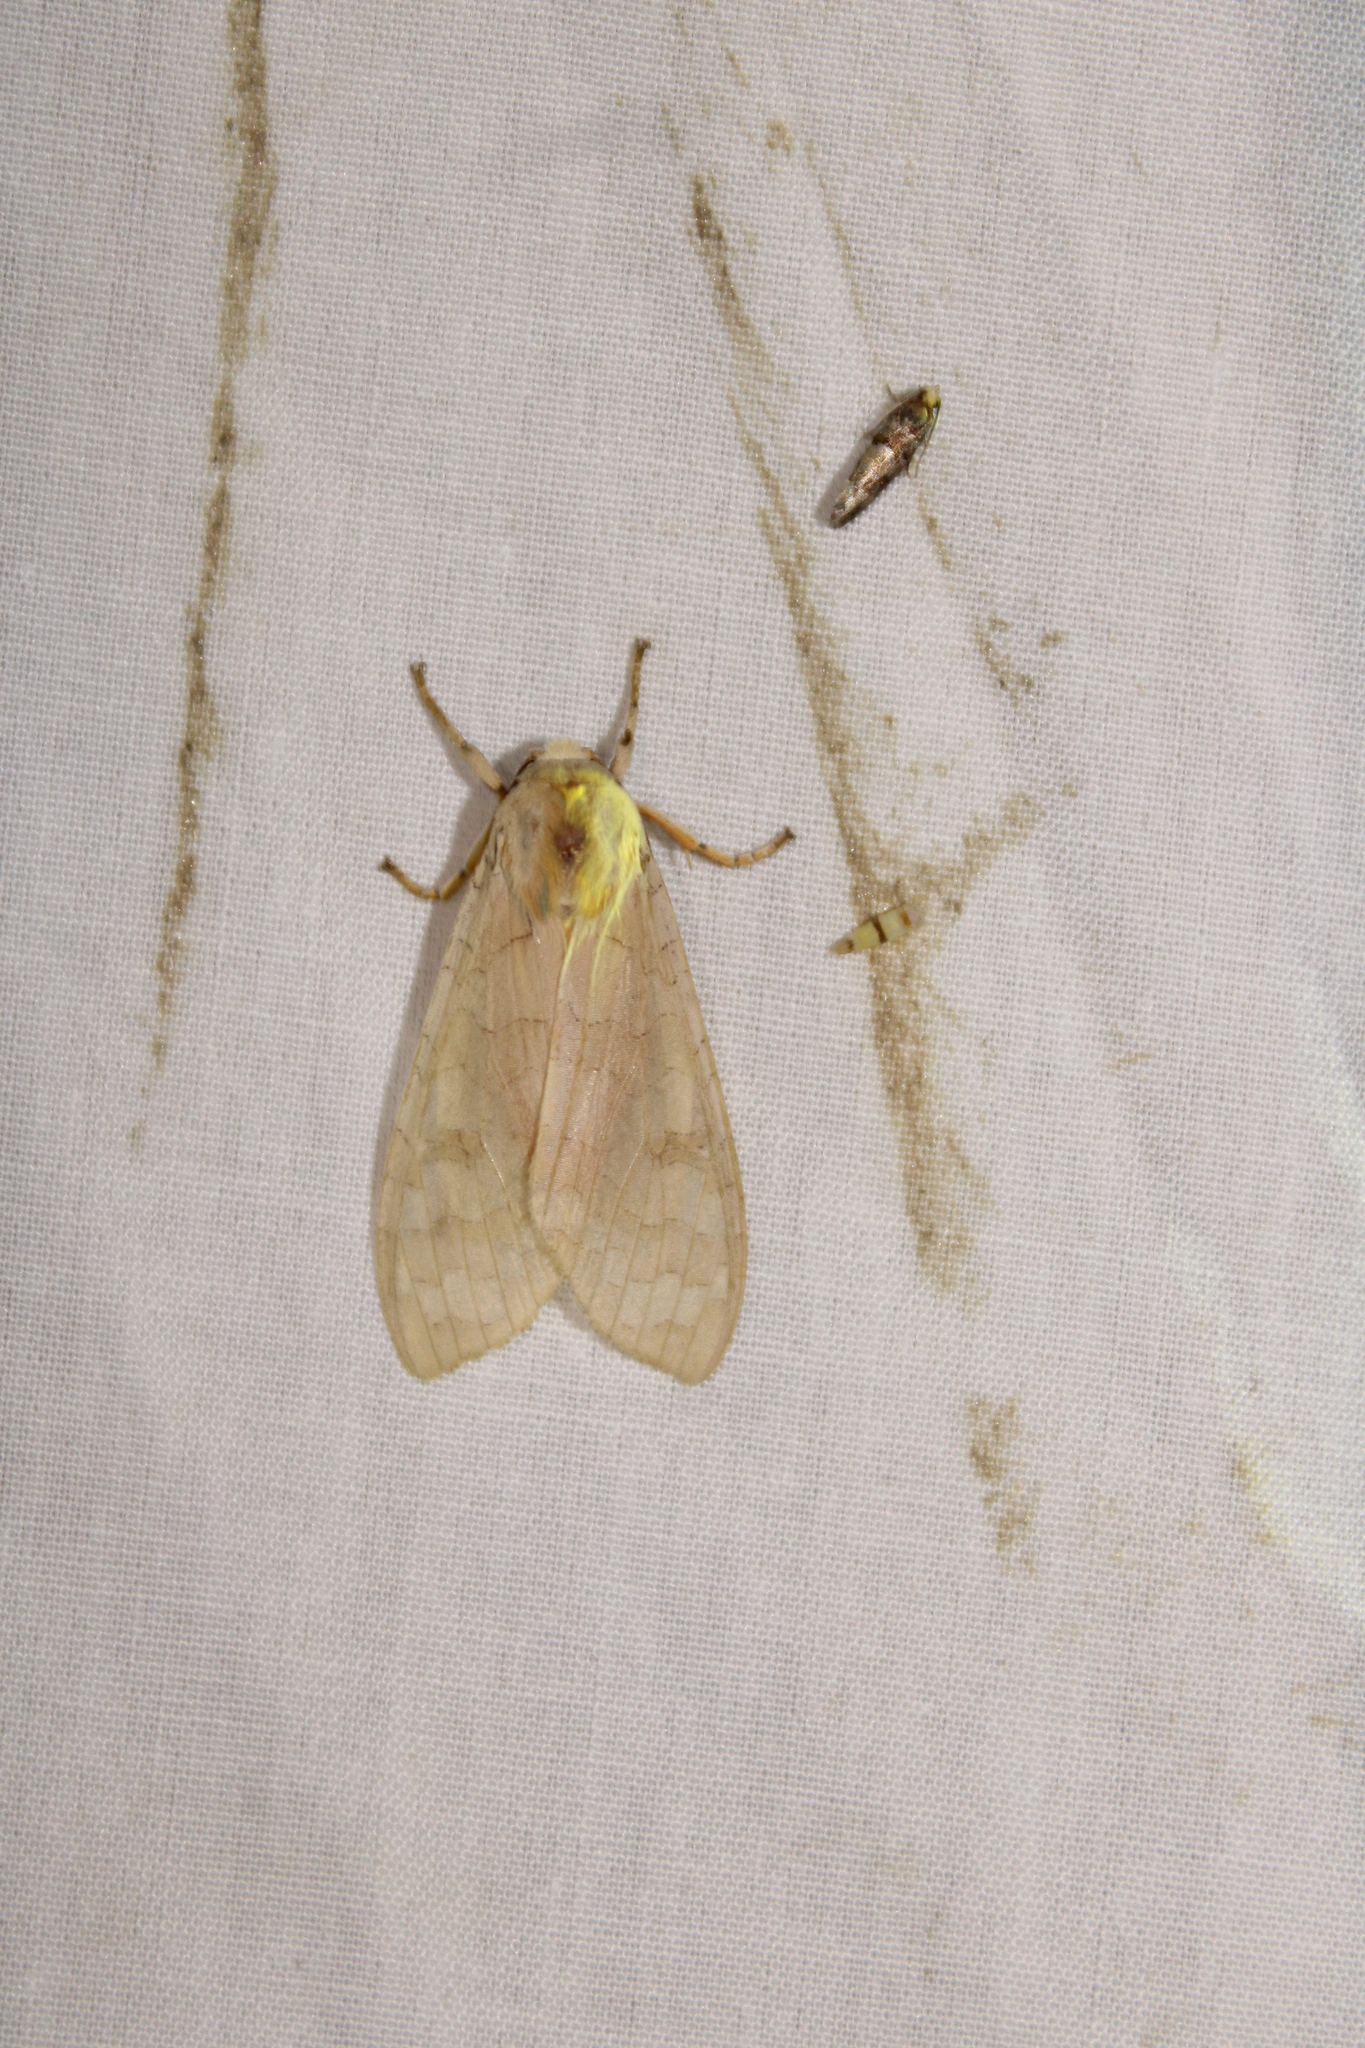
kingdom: Animalia
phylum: Arthropoda
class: Insecta
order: Lepidoptera
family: Erebidae
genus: Halysidota
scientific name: Halysidota
